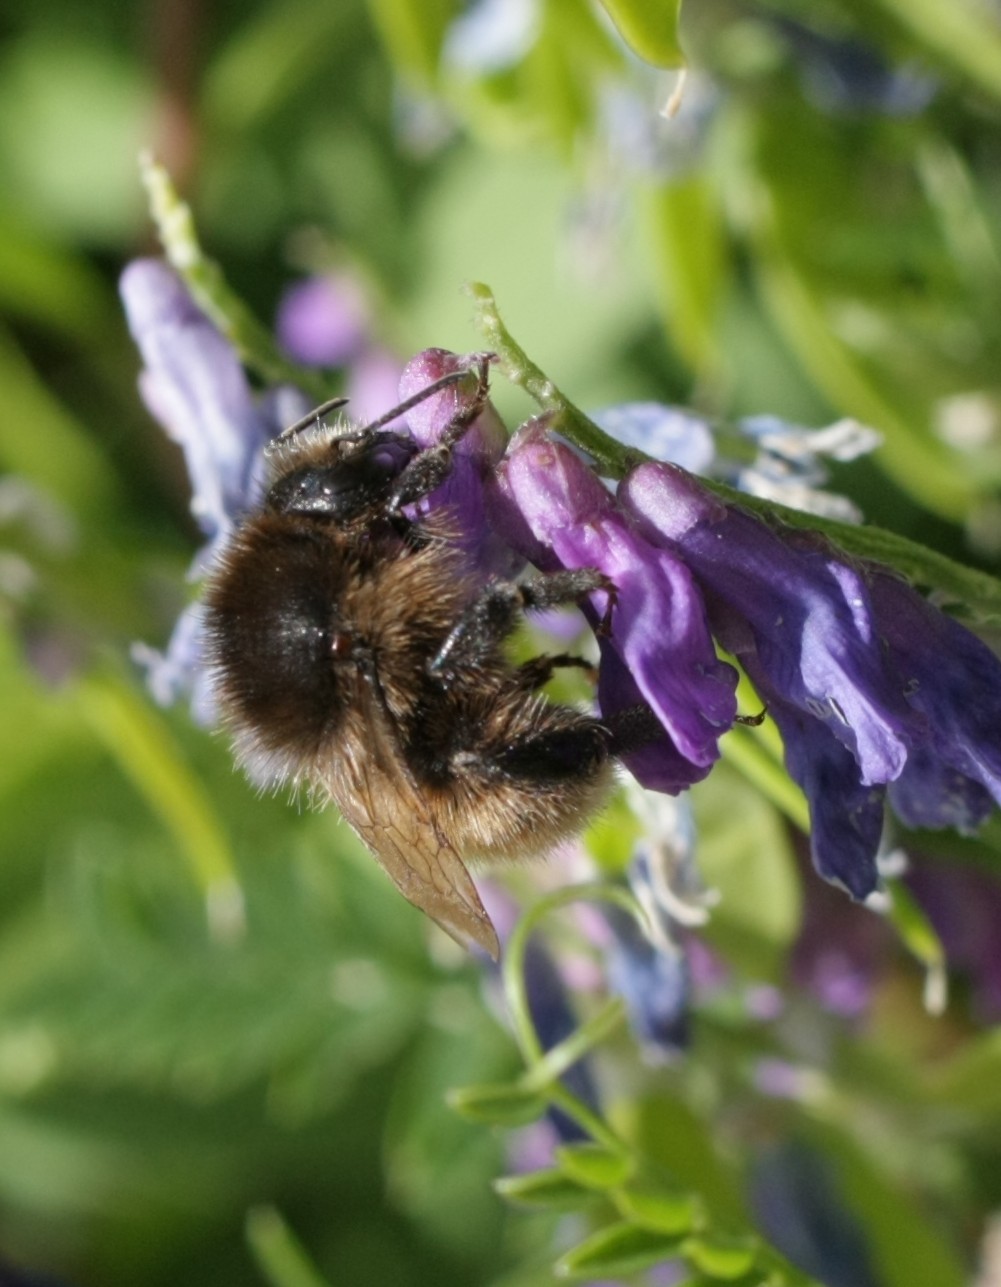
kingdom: Animalia
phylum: Arthropoda
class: Insecta
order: Hymenoptera
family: Apidae
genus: Bombus
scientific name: Bombus humilis
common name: Brown-banded carder-bee
